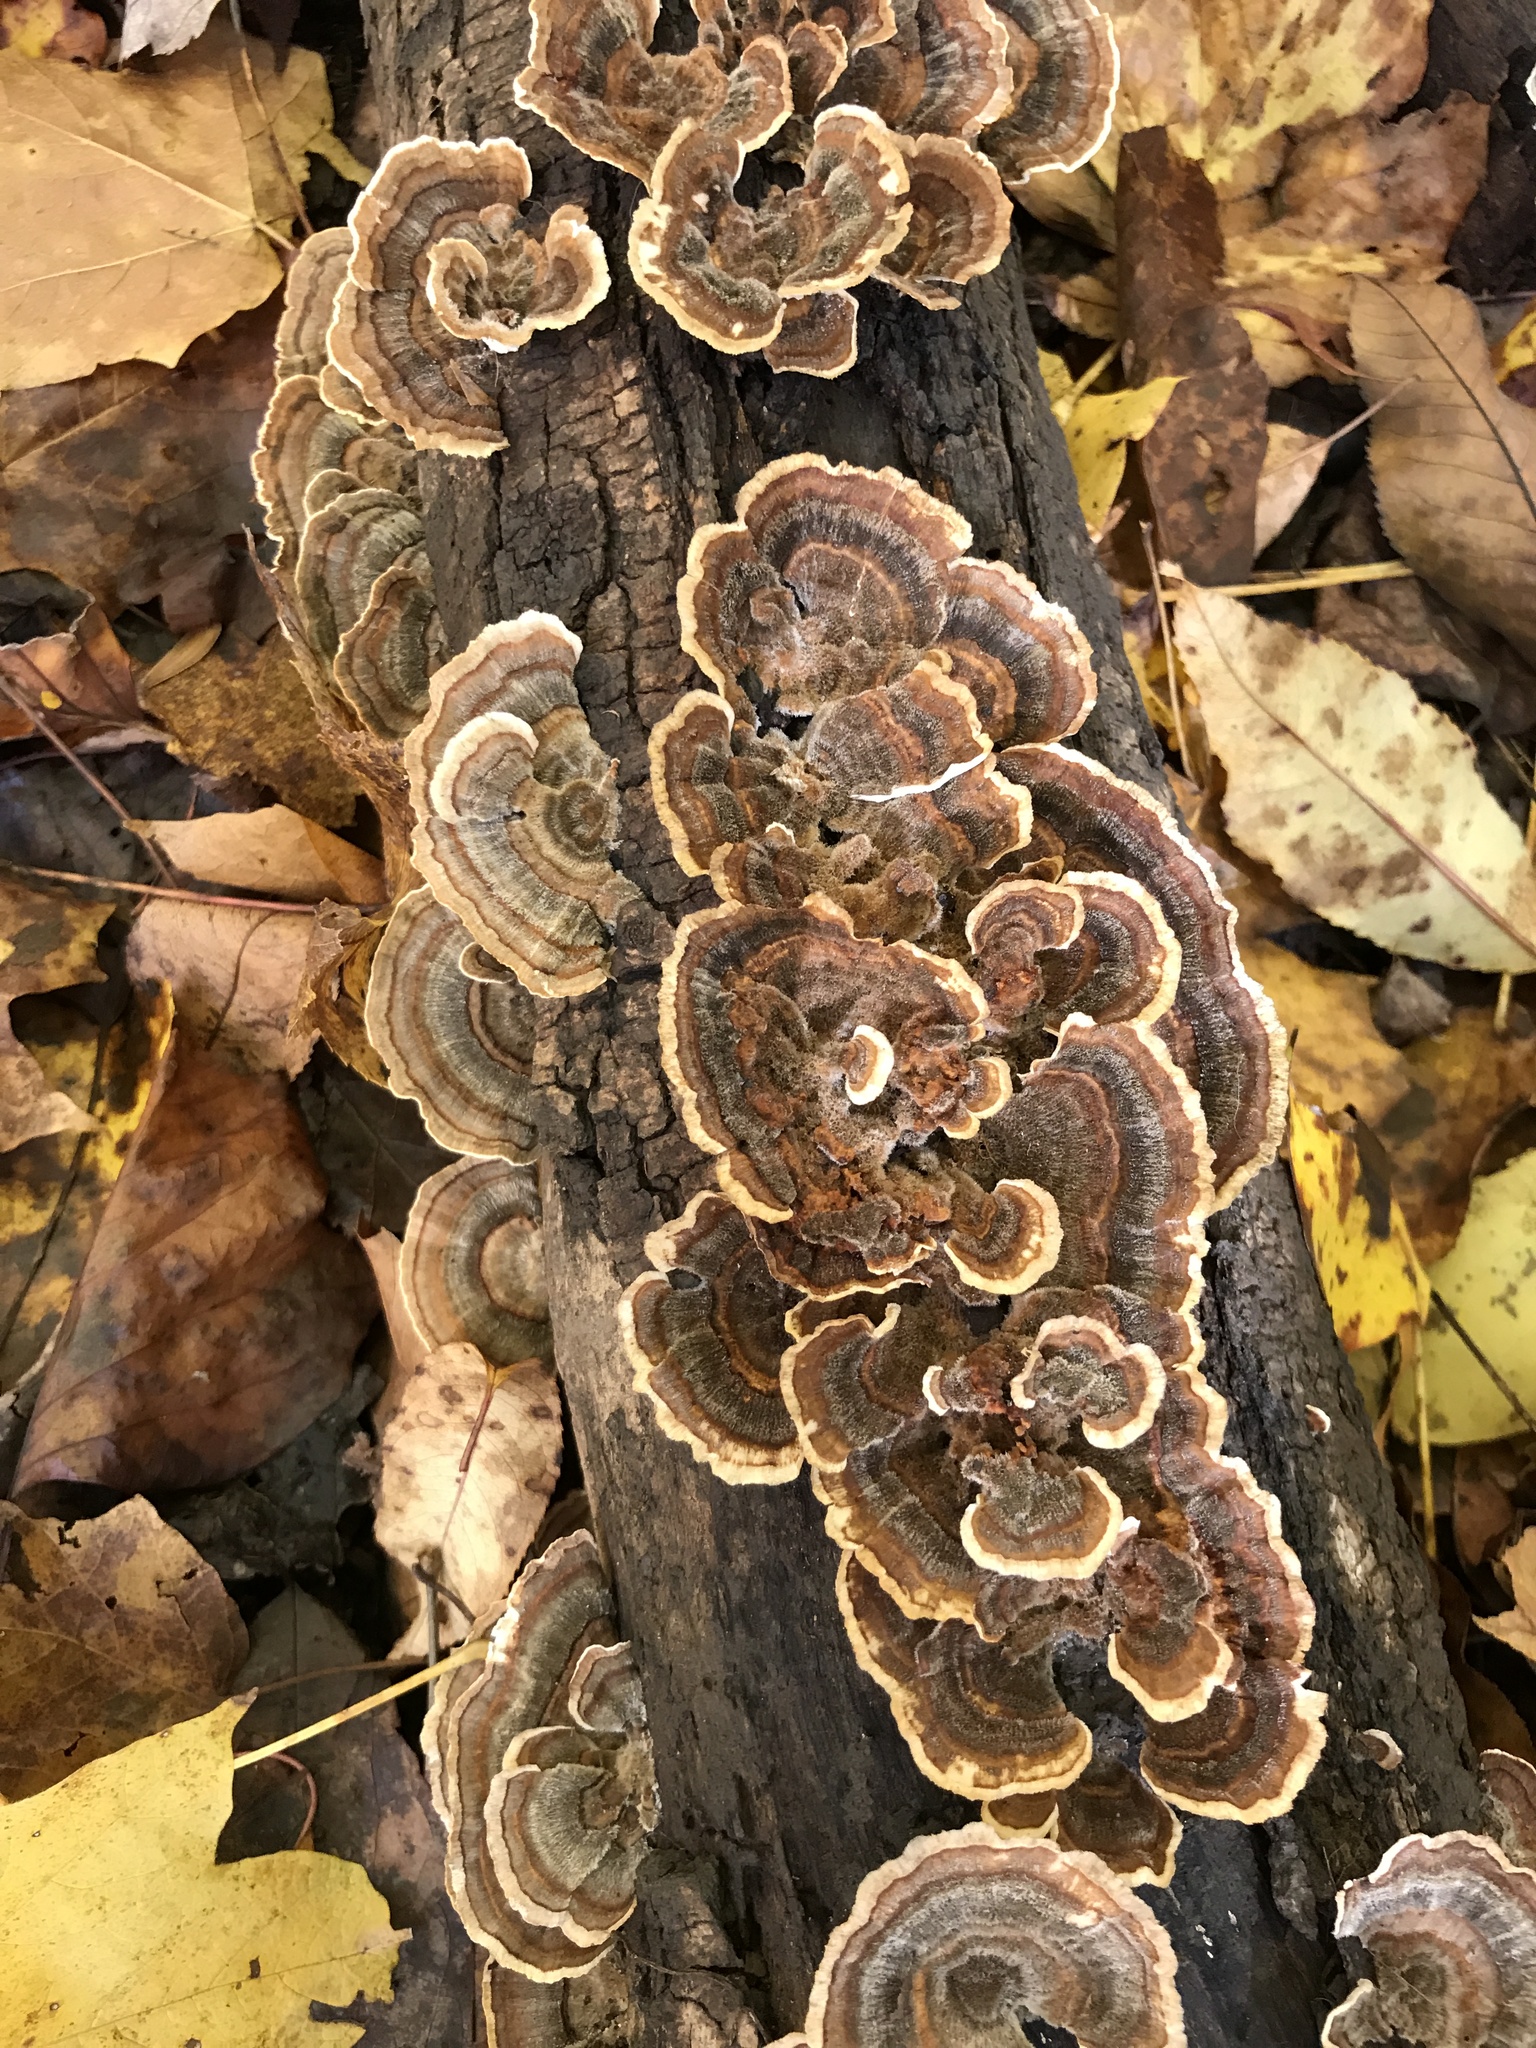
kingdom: Fungi
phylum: Basidiomycota
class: Agaricomycetes
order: Polyporales
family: Polyporaceae
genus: Trametes
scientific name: Trametes versicolor
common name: Turkeytail
